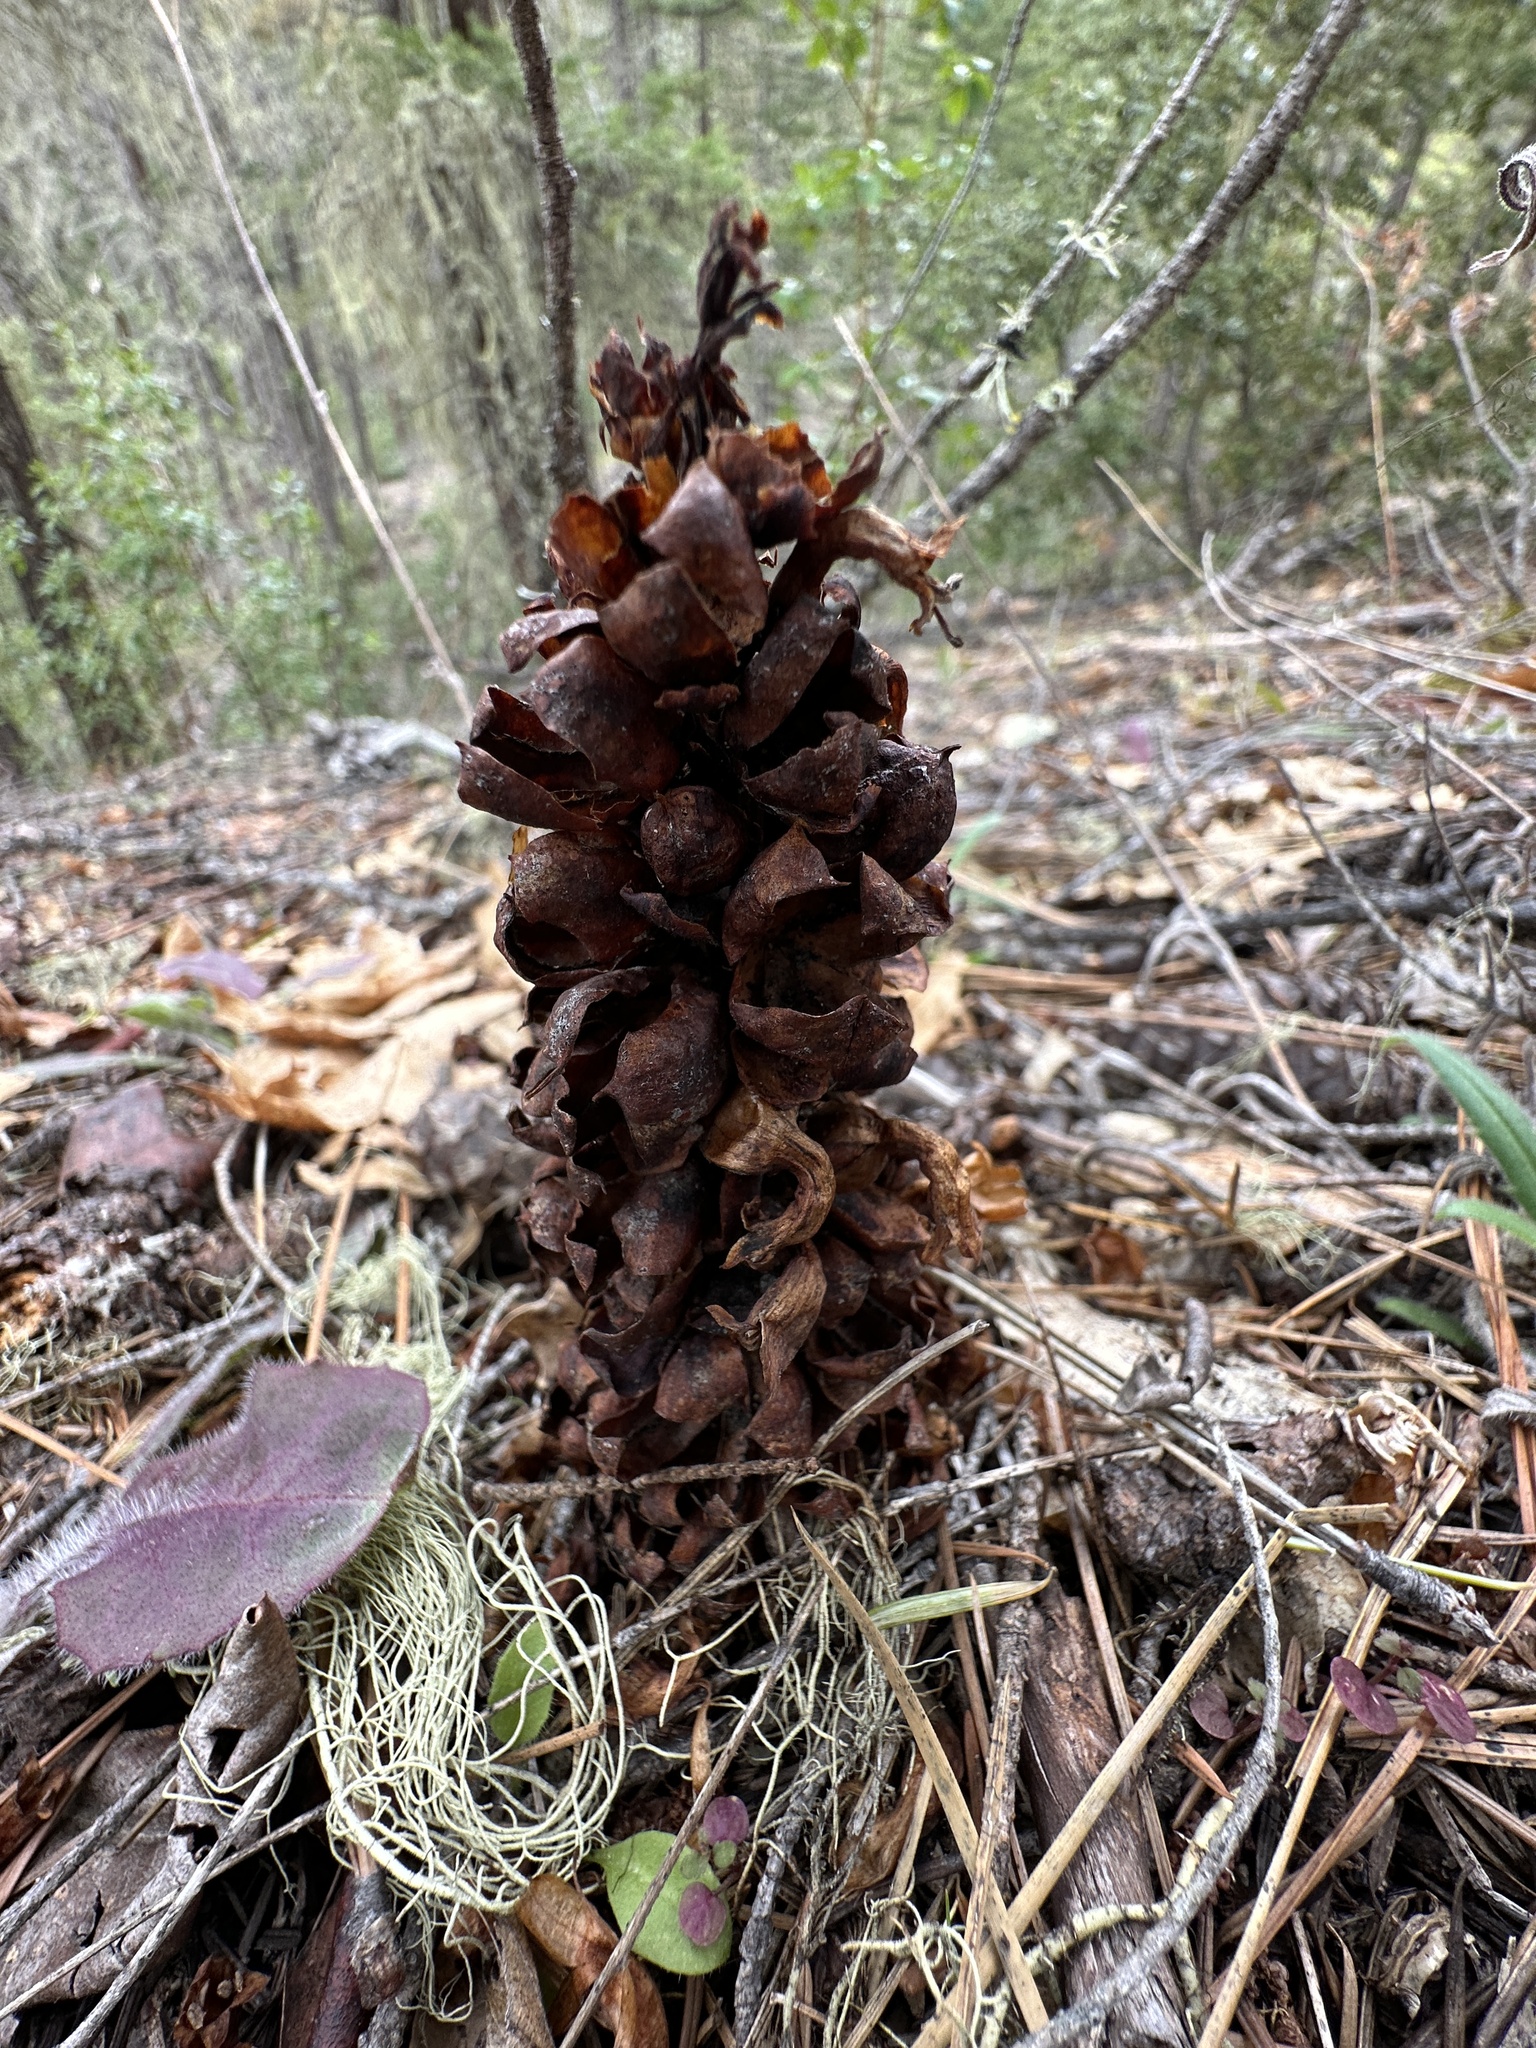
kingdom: Plantae
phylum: Tracheophyta
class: Magnoliopsida
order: Lamiales
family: Orobanchaceae
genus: Kopsiopsis
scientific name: Kopsiopsis strobilacea
